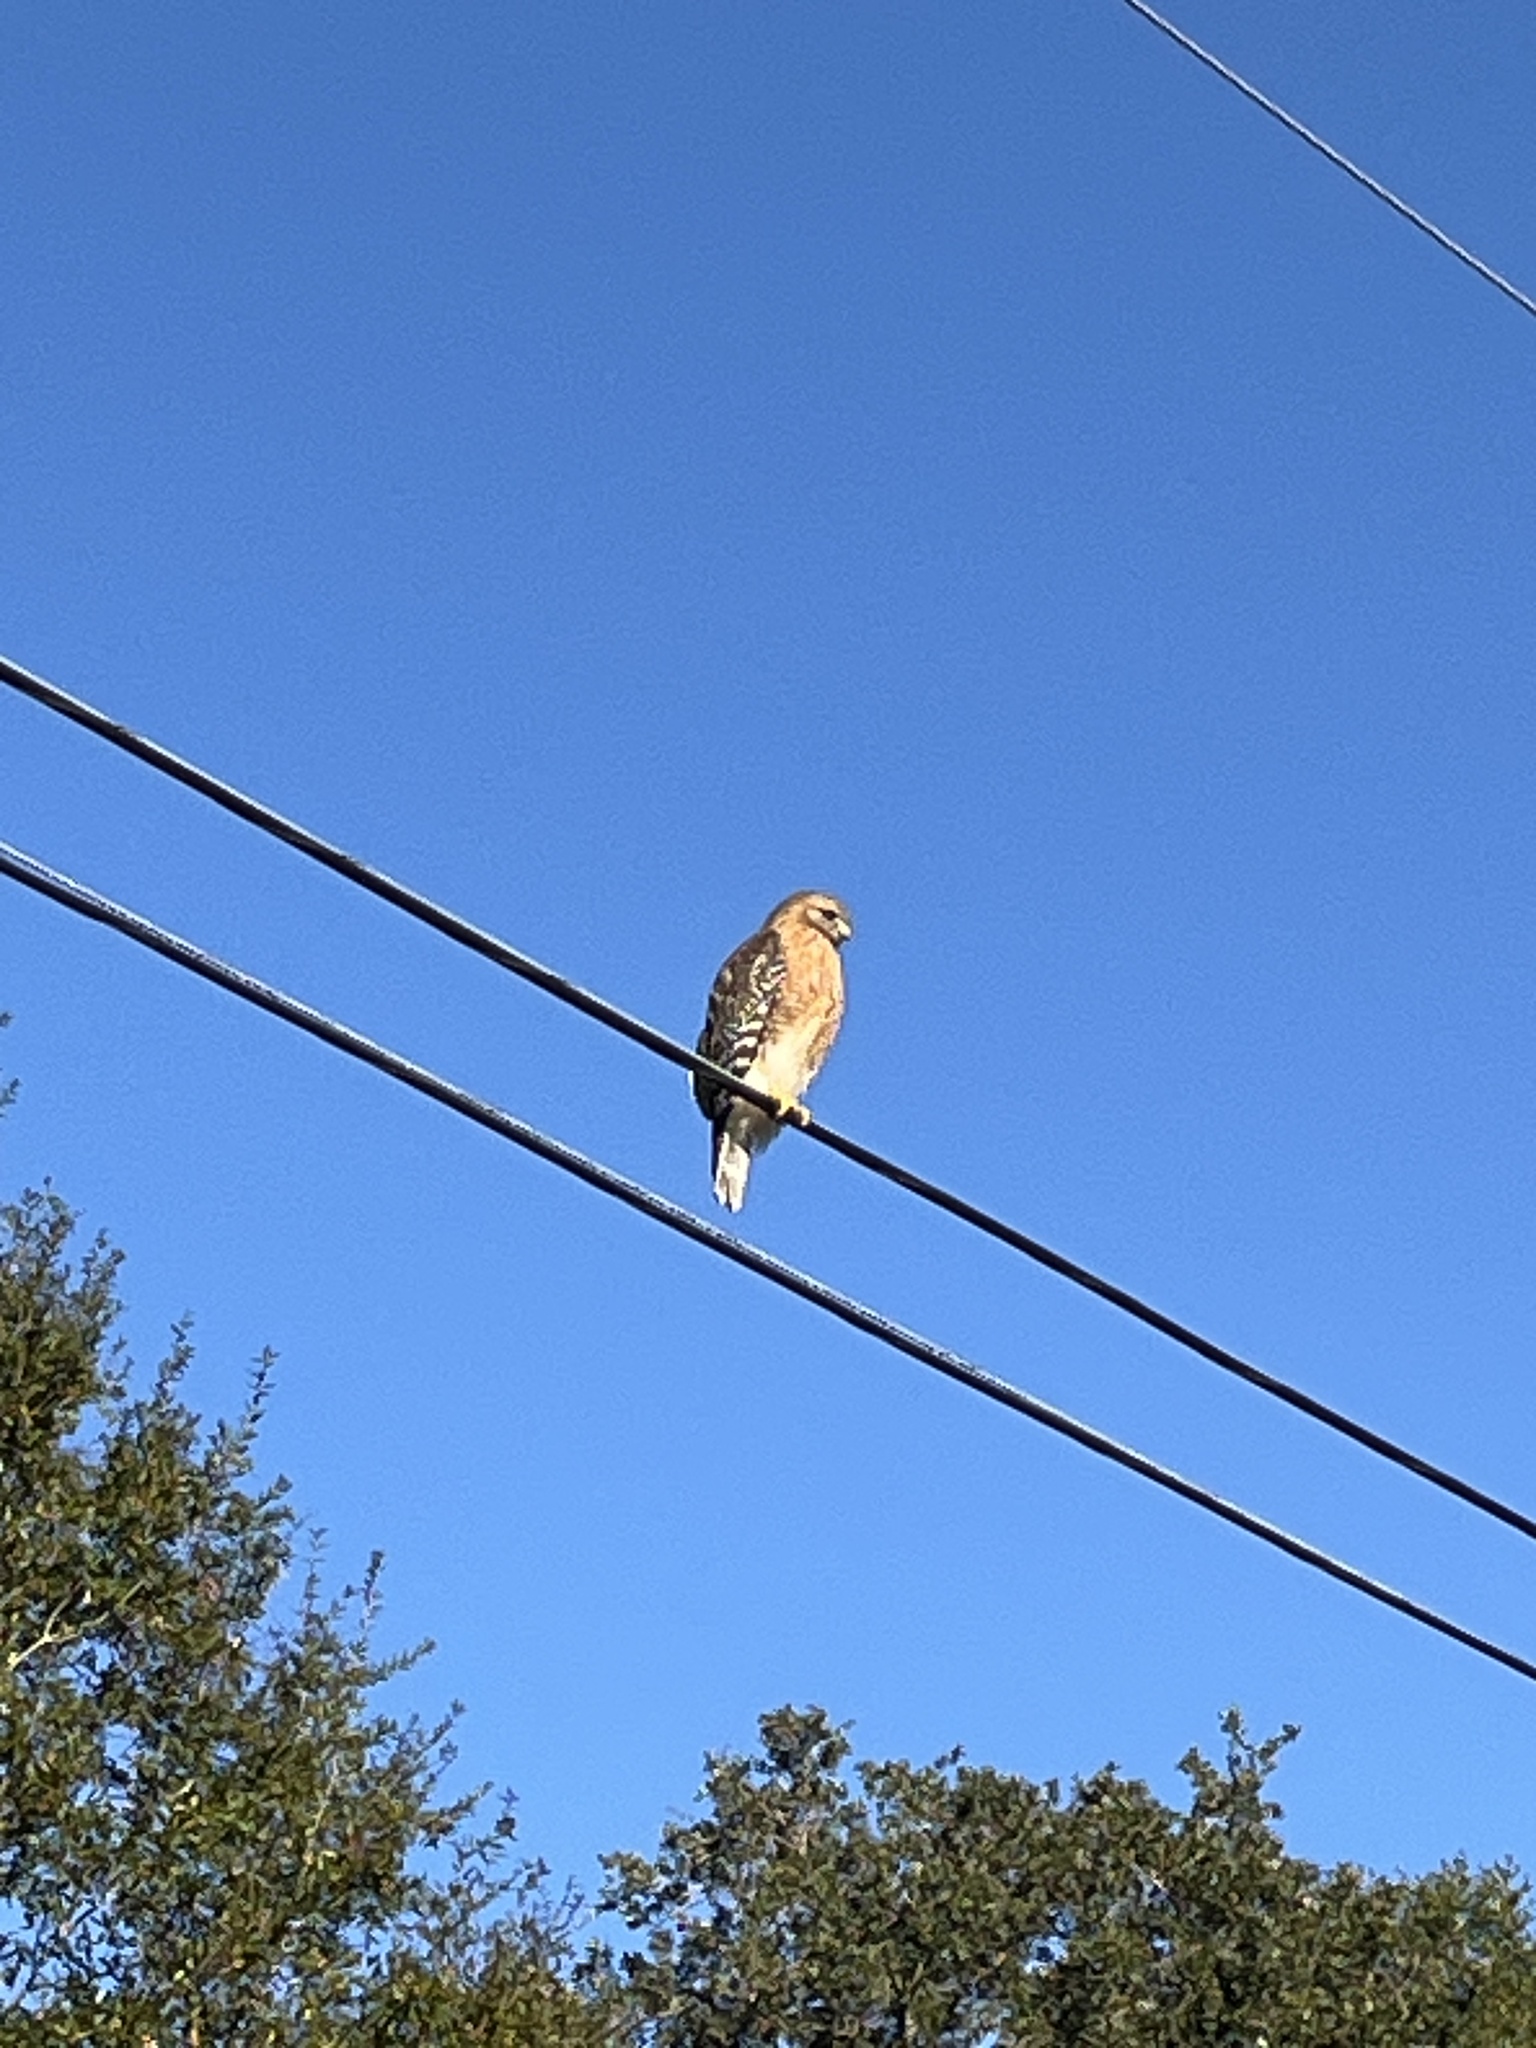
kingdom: Animalia
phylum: Chordata
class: Aves
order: Accipitriformes
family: Accipitridae
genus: Buteo
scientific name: Buteo lineatus
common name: Red-shouldered hawk
